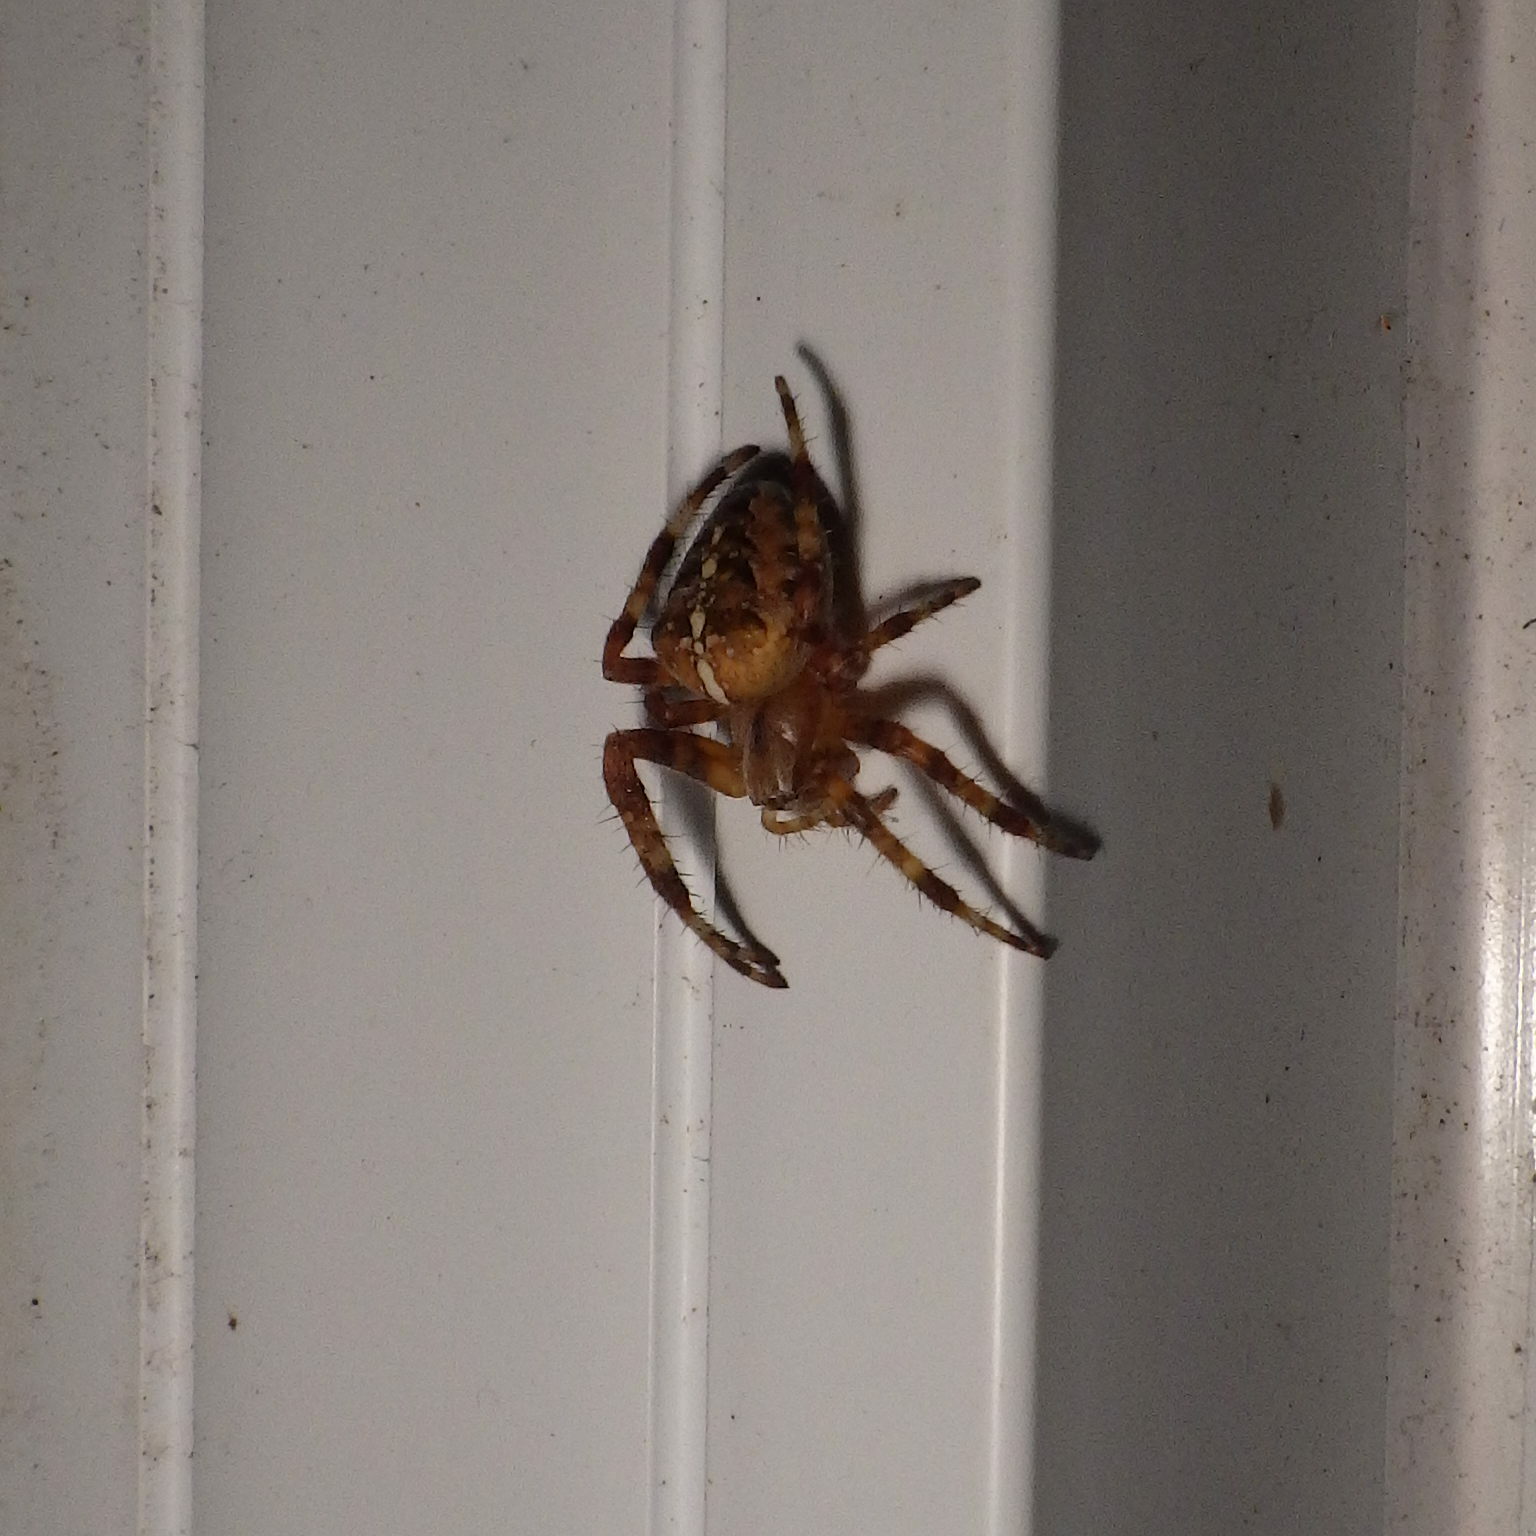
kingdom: Animalia
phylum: Arthropoda
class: Arachnida
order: Araneae
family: Araneidae
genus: Araneus
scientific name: Araneus diadematus
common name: Cross orbweaver
